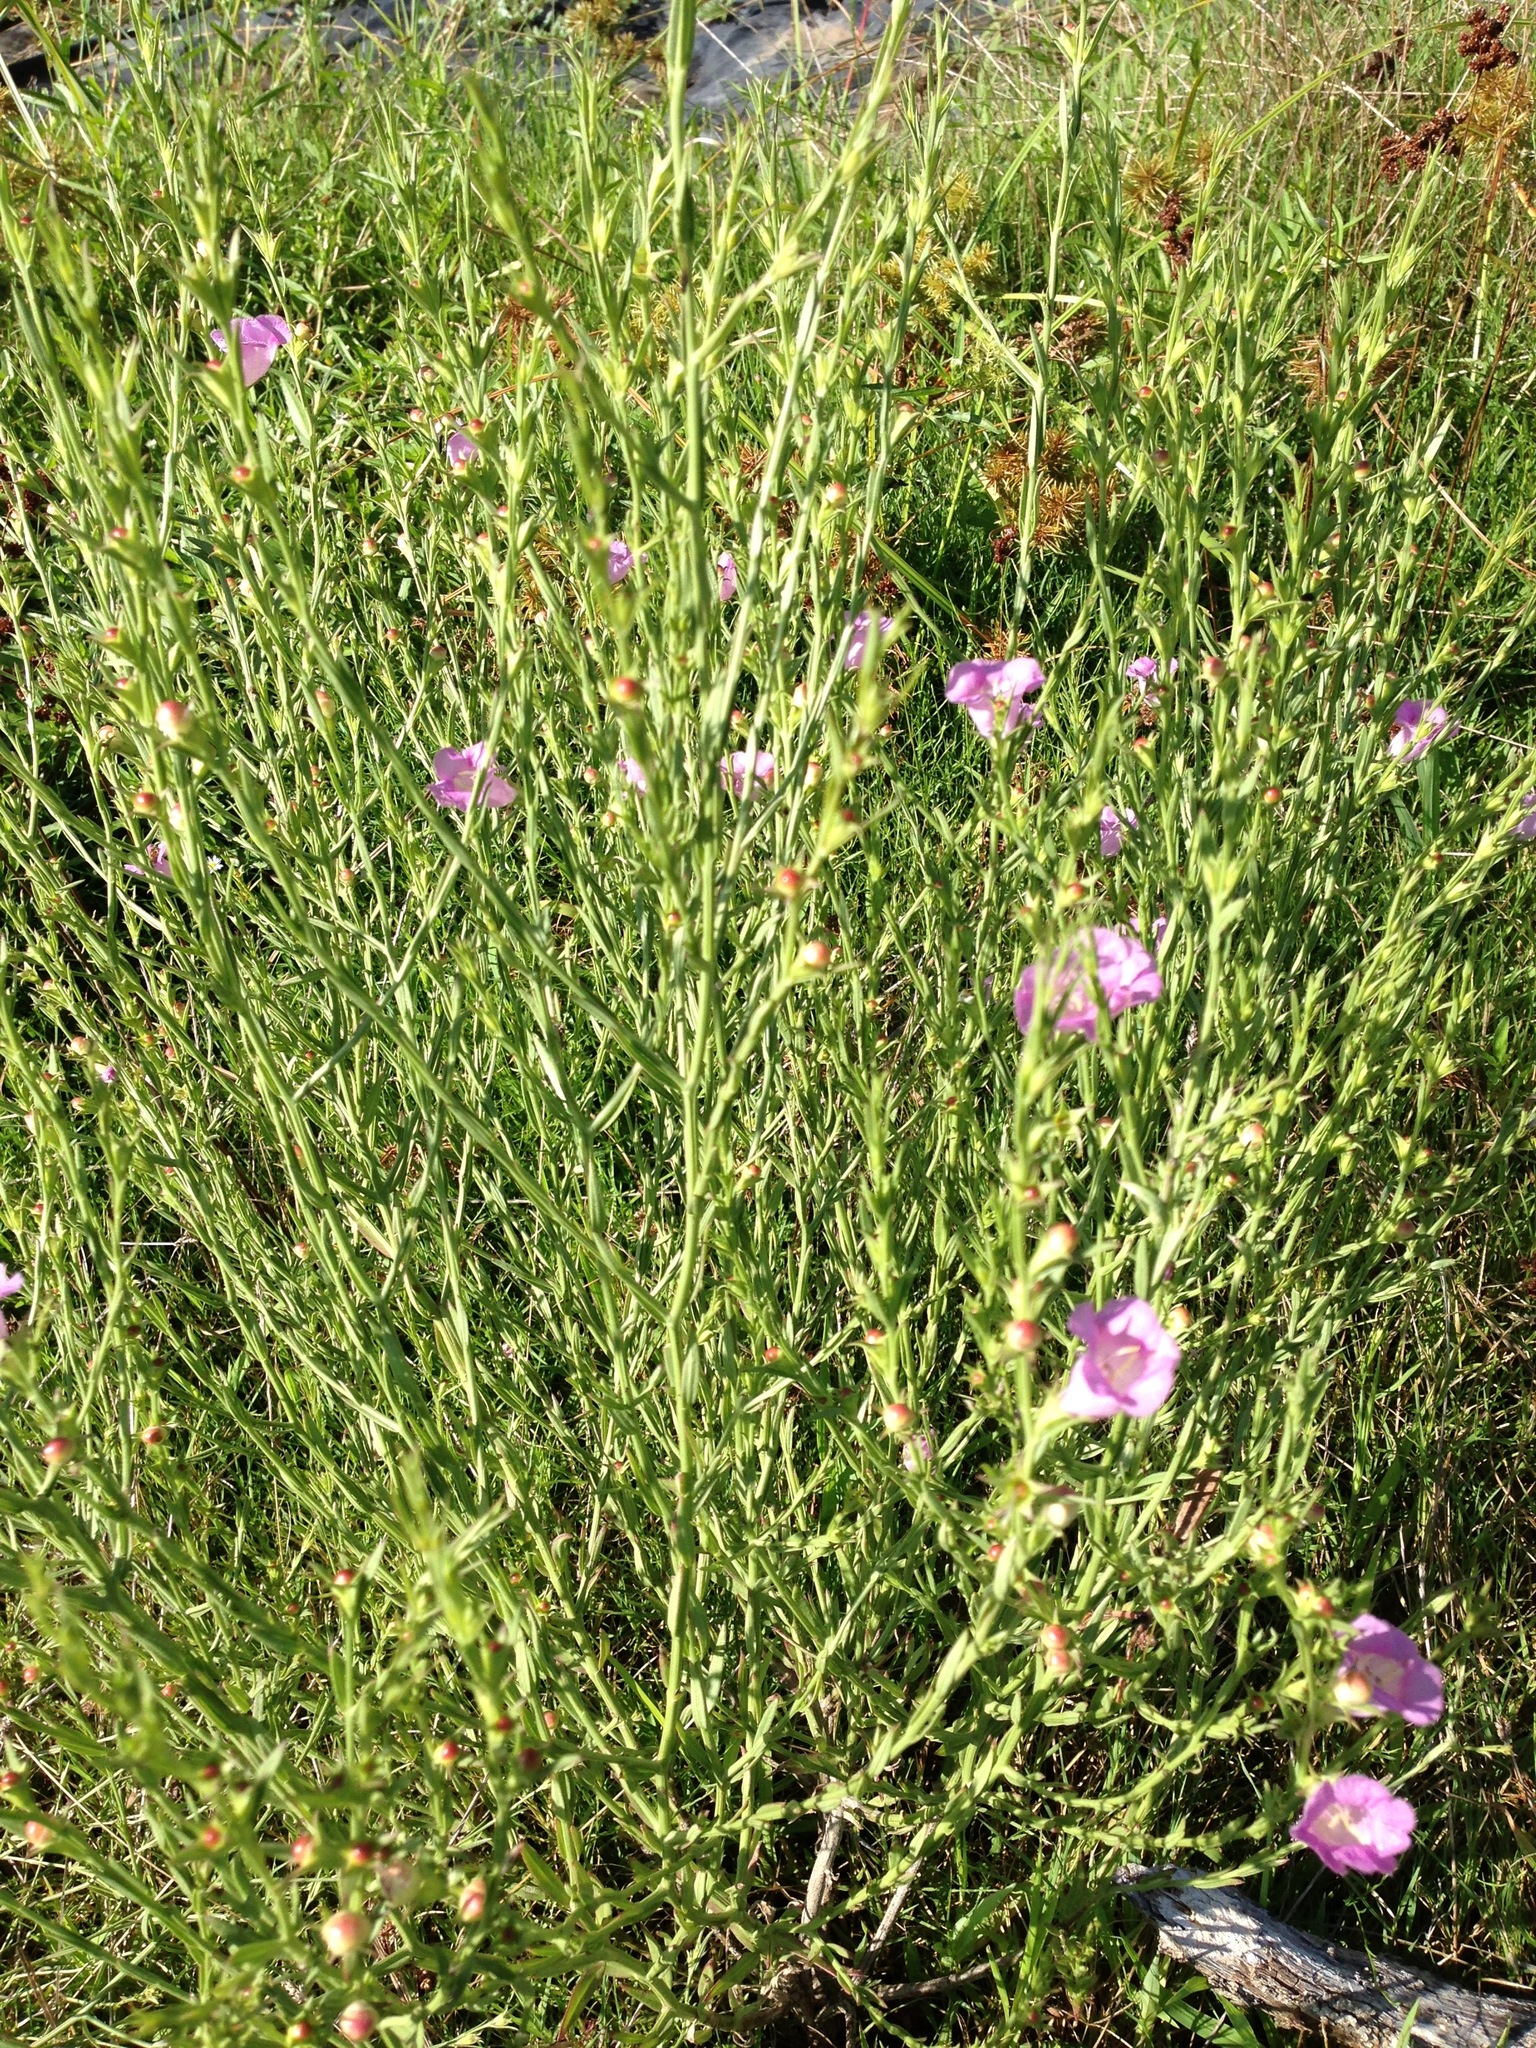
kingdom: Plantae
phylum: Tracheophyta
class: Magnoliopsida
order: Lamiales
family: Orobanchaceae
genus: Agalinis
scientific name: Agalinis heterophylla
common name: Prairie agalinis
